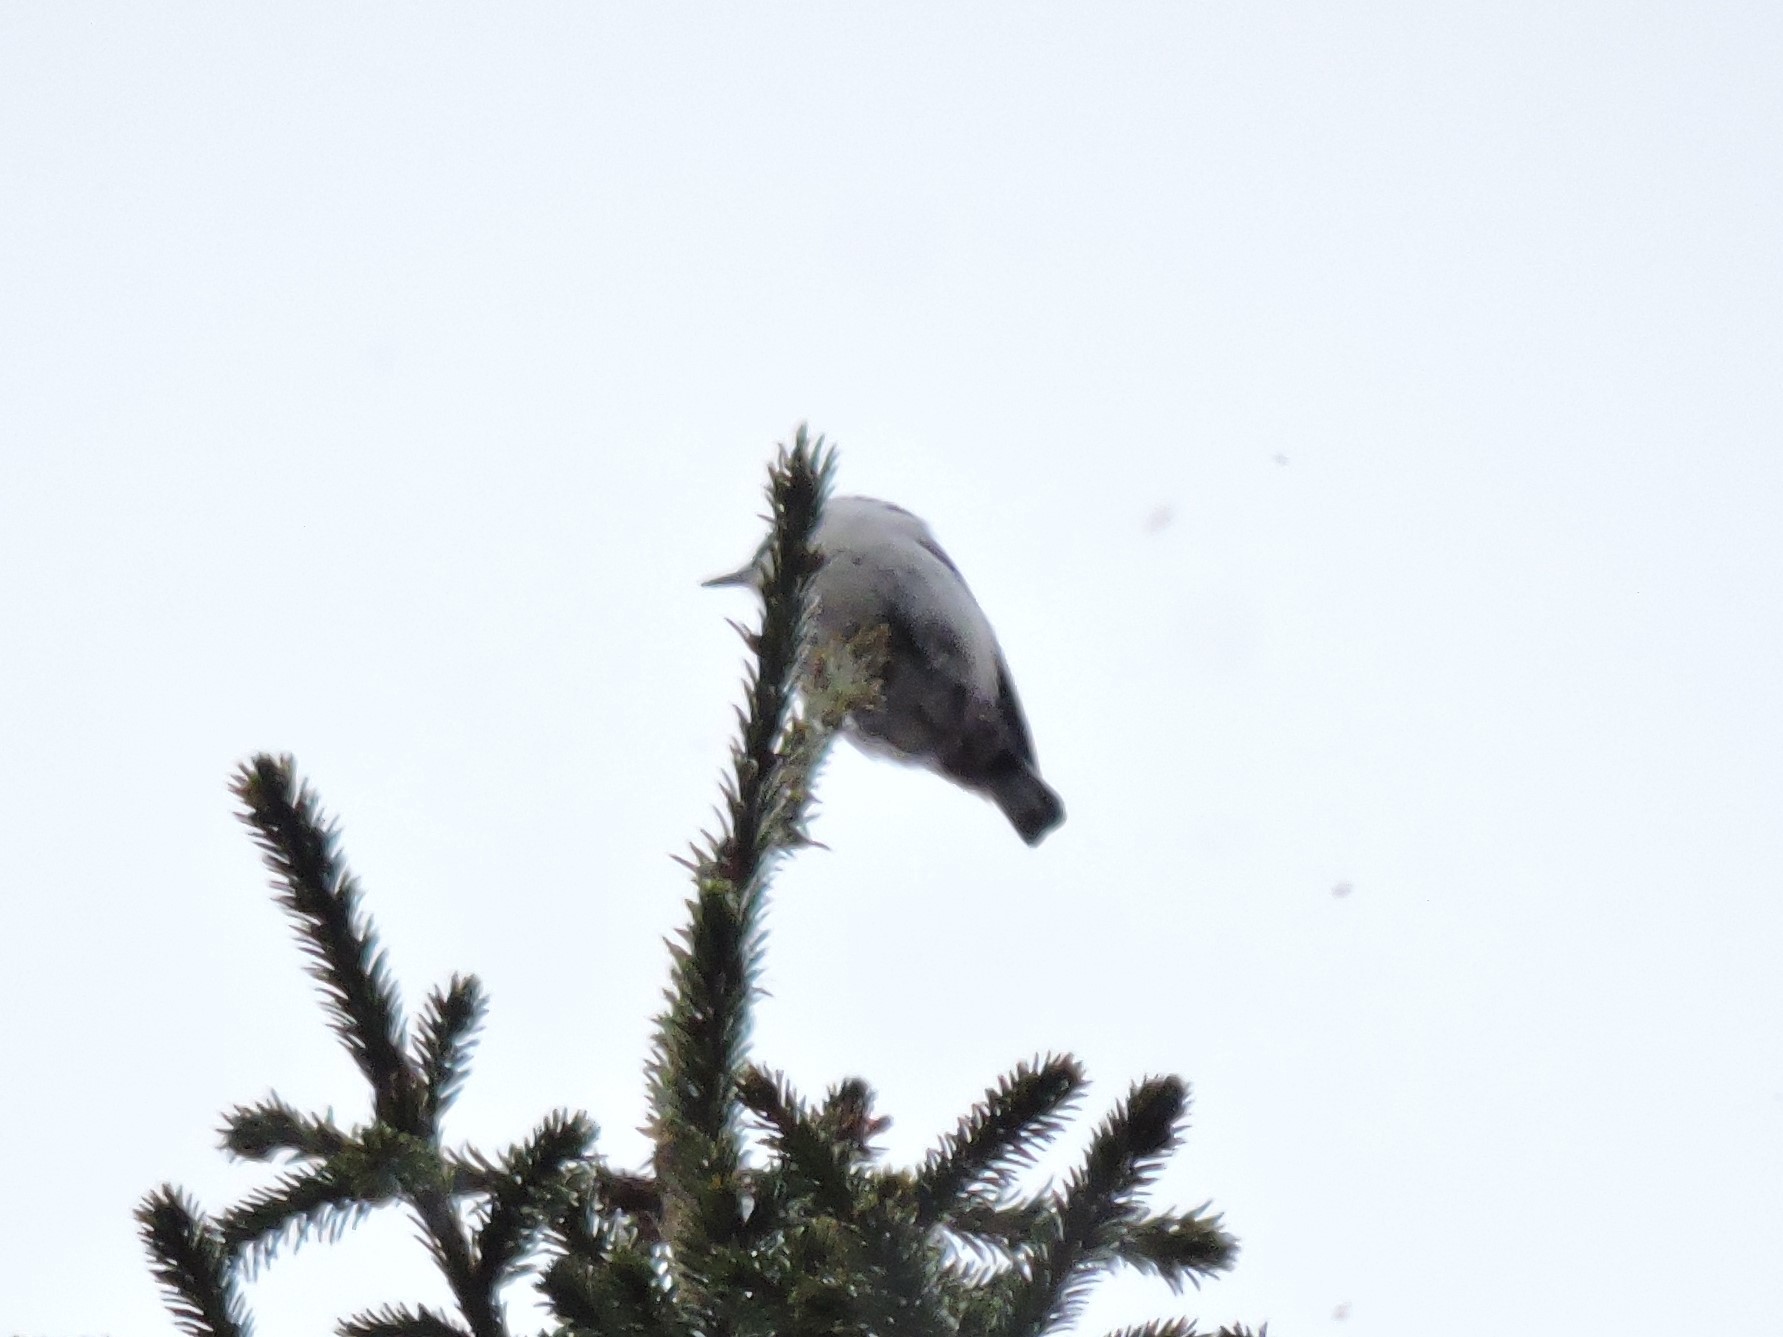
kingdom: Animalia
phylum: Chordata
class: Aves
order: Passeriformes
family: Sittidae
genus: Sitta
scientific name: Sitta europaea
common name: Eurasian nuthatch
